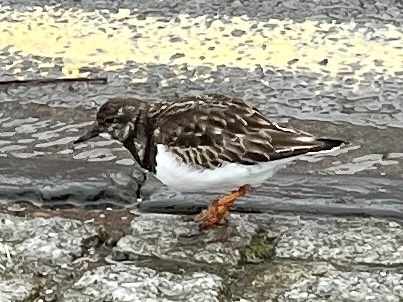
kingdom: Animalia
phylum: Chordata
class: Aves
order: Charadriiformes
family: Scolopacidae
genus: Arenaria
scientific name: Arenaria interpres
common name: Ruddy turnstone
